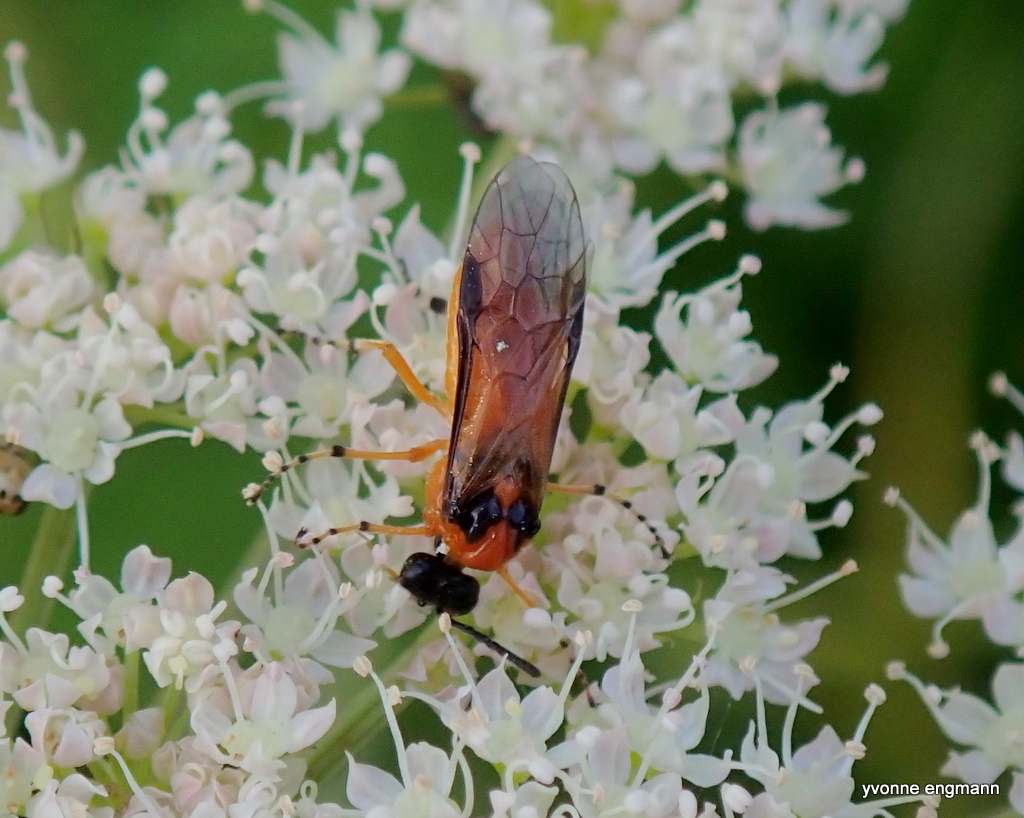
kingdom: Animalia
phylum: Arthropoda
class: Insecta
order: Hymenoptera
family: Tenthredinidae
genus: Athalia
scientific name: Athalia rosae
